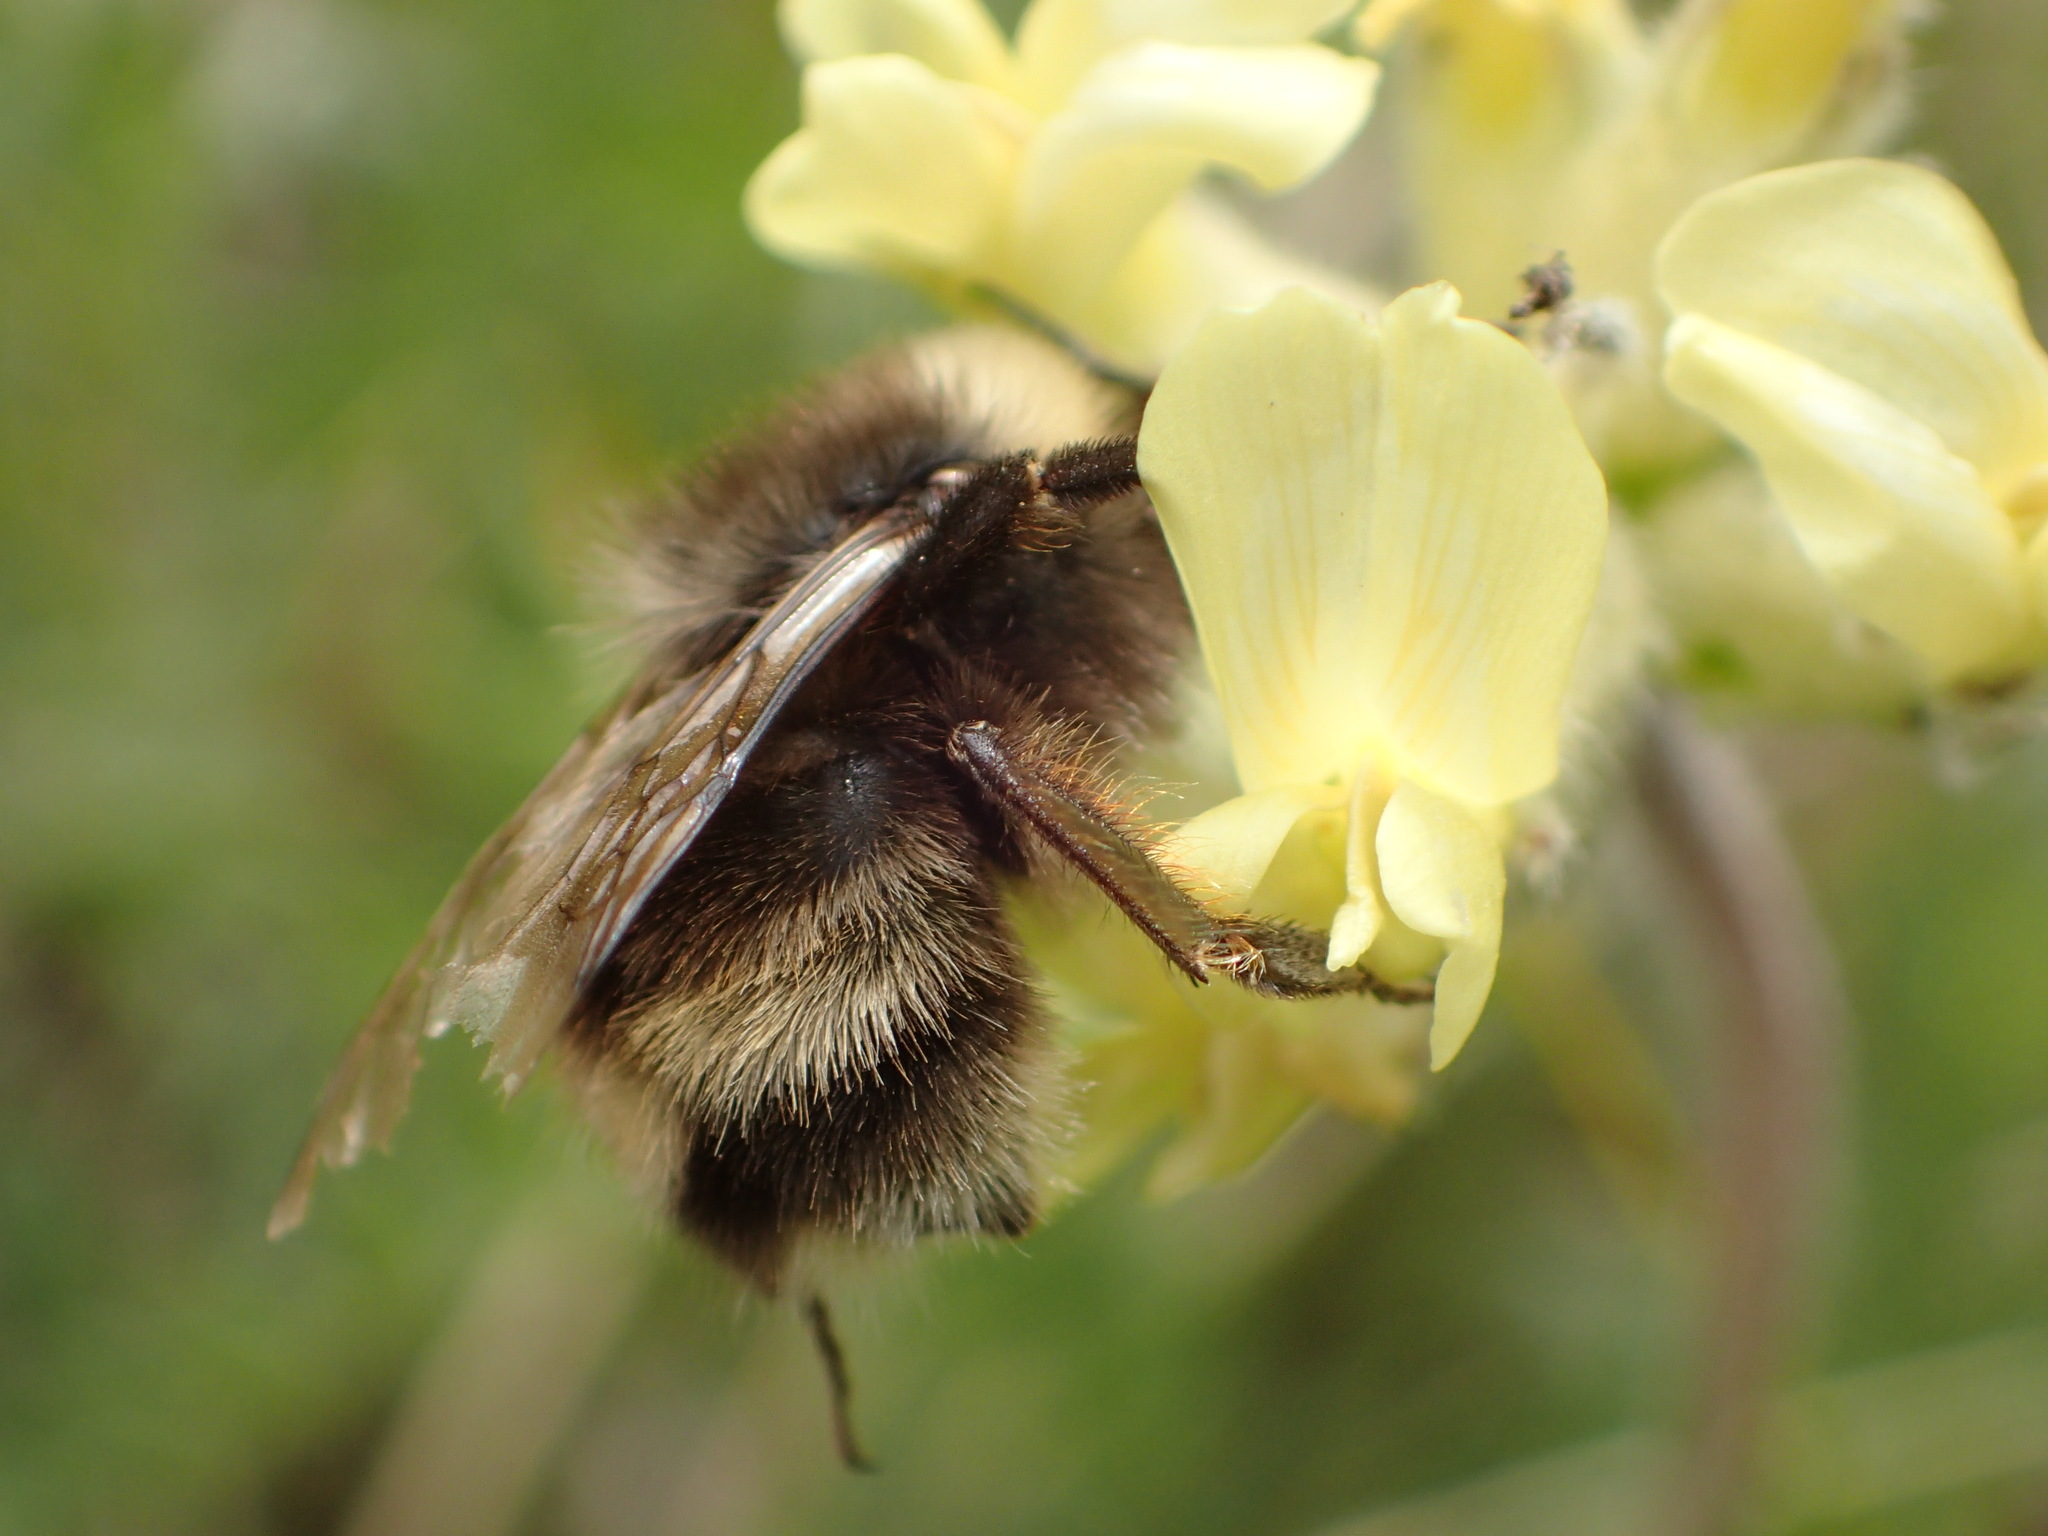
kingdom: Animalia
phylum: Arthropoda
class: Insecta
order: Hymenoptera
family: Apidae
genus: Bombus
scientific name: Bombus mckayi
